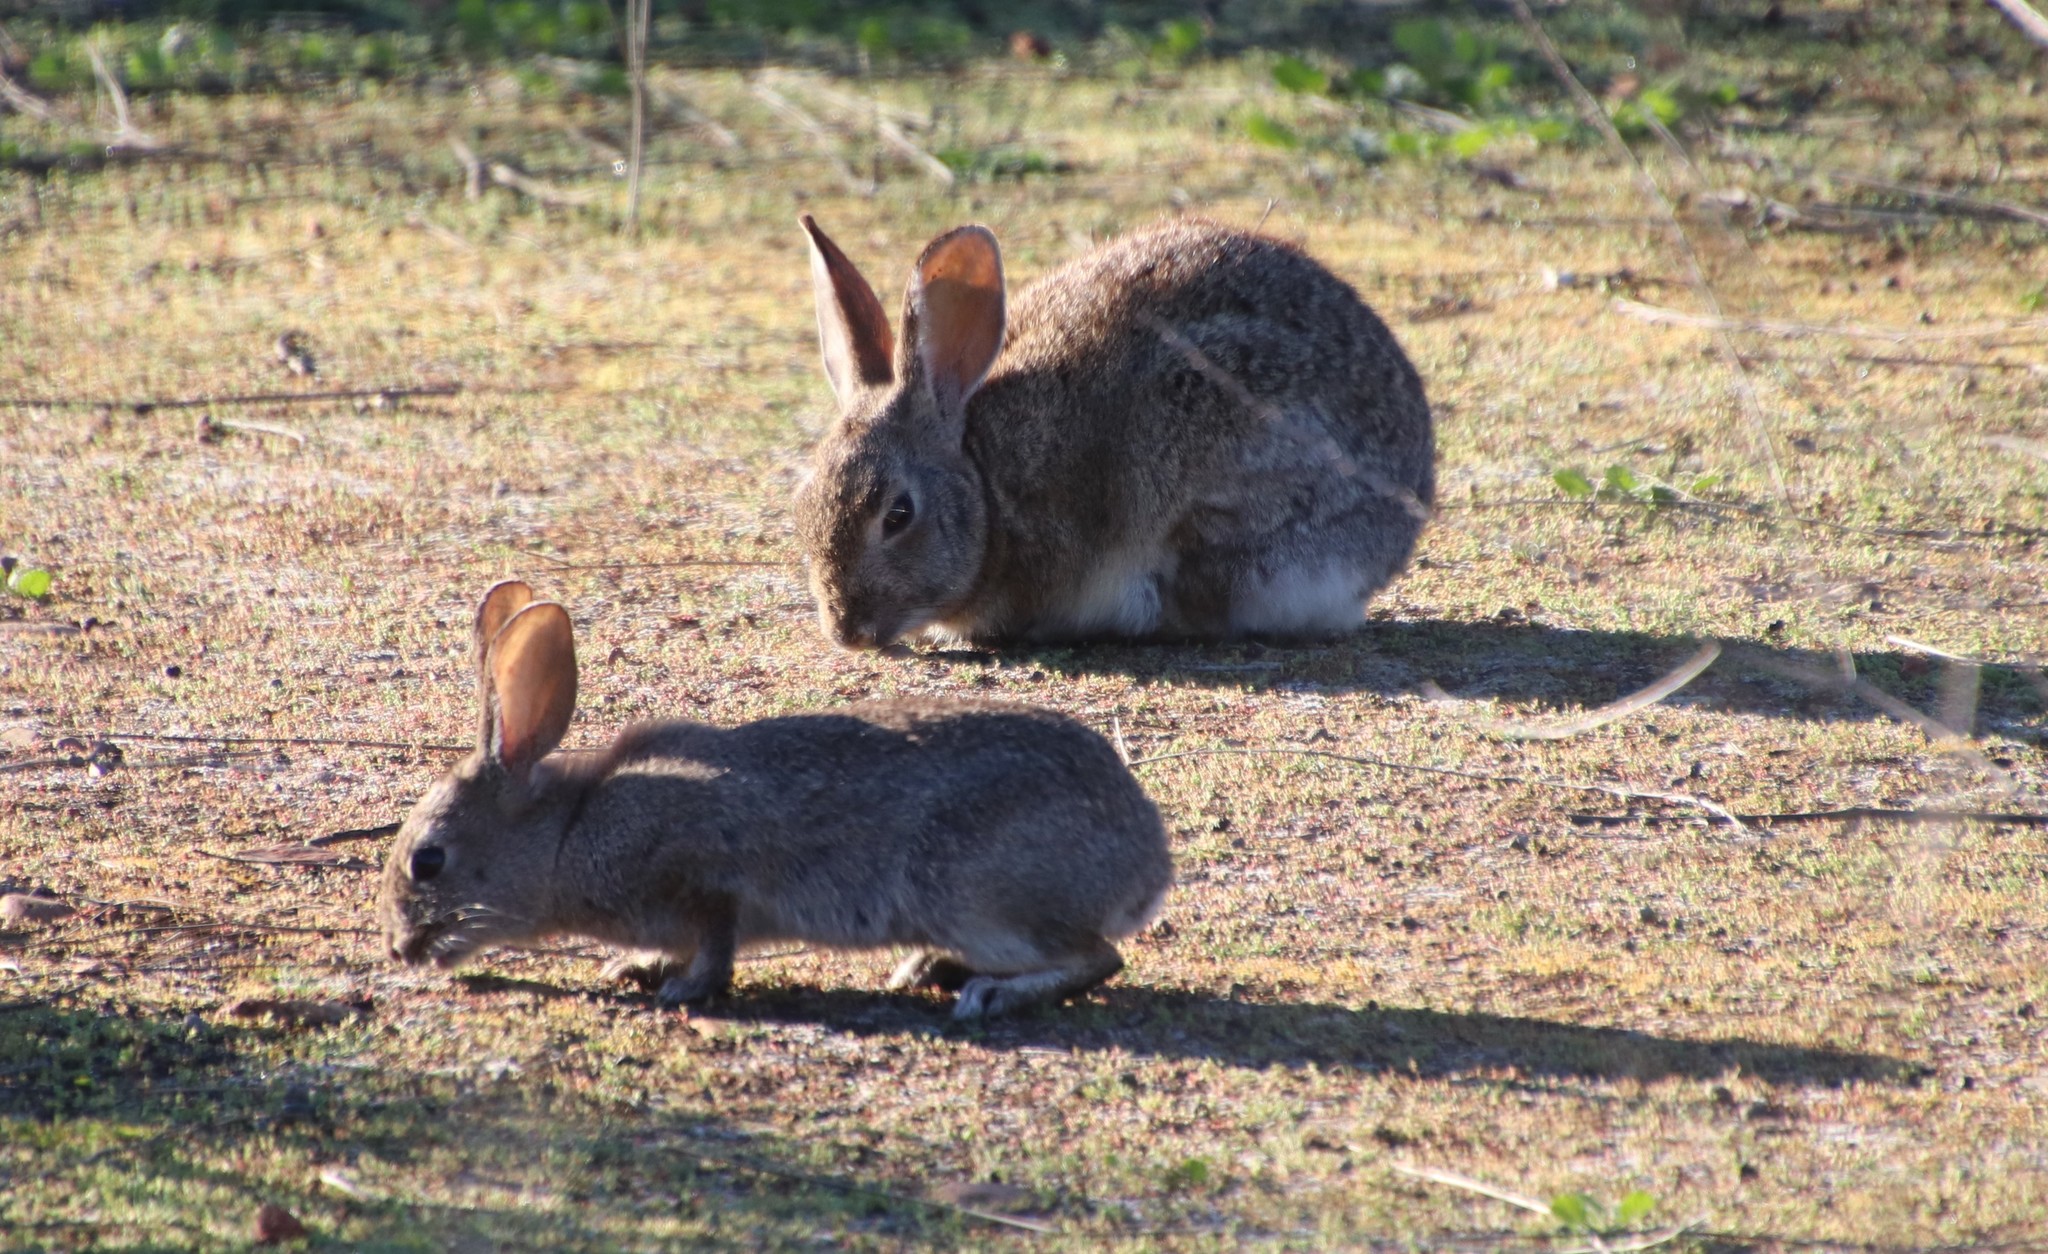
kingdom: Animalia
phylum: Chordata
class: Mammalia
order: Lagomorpha
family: Leporidae
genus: Sylvilagus
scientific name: Sylvilagus bachmani
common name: Brush rabbit
